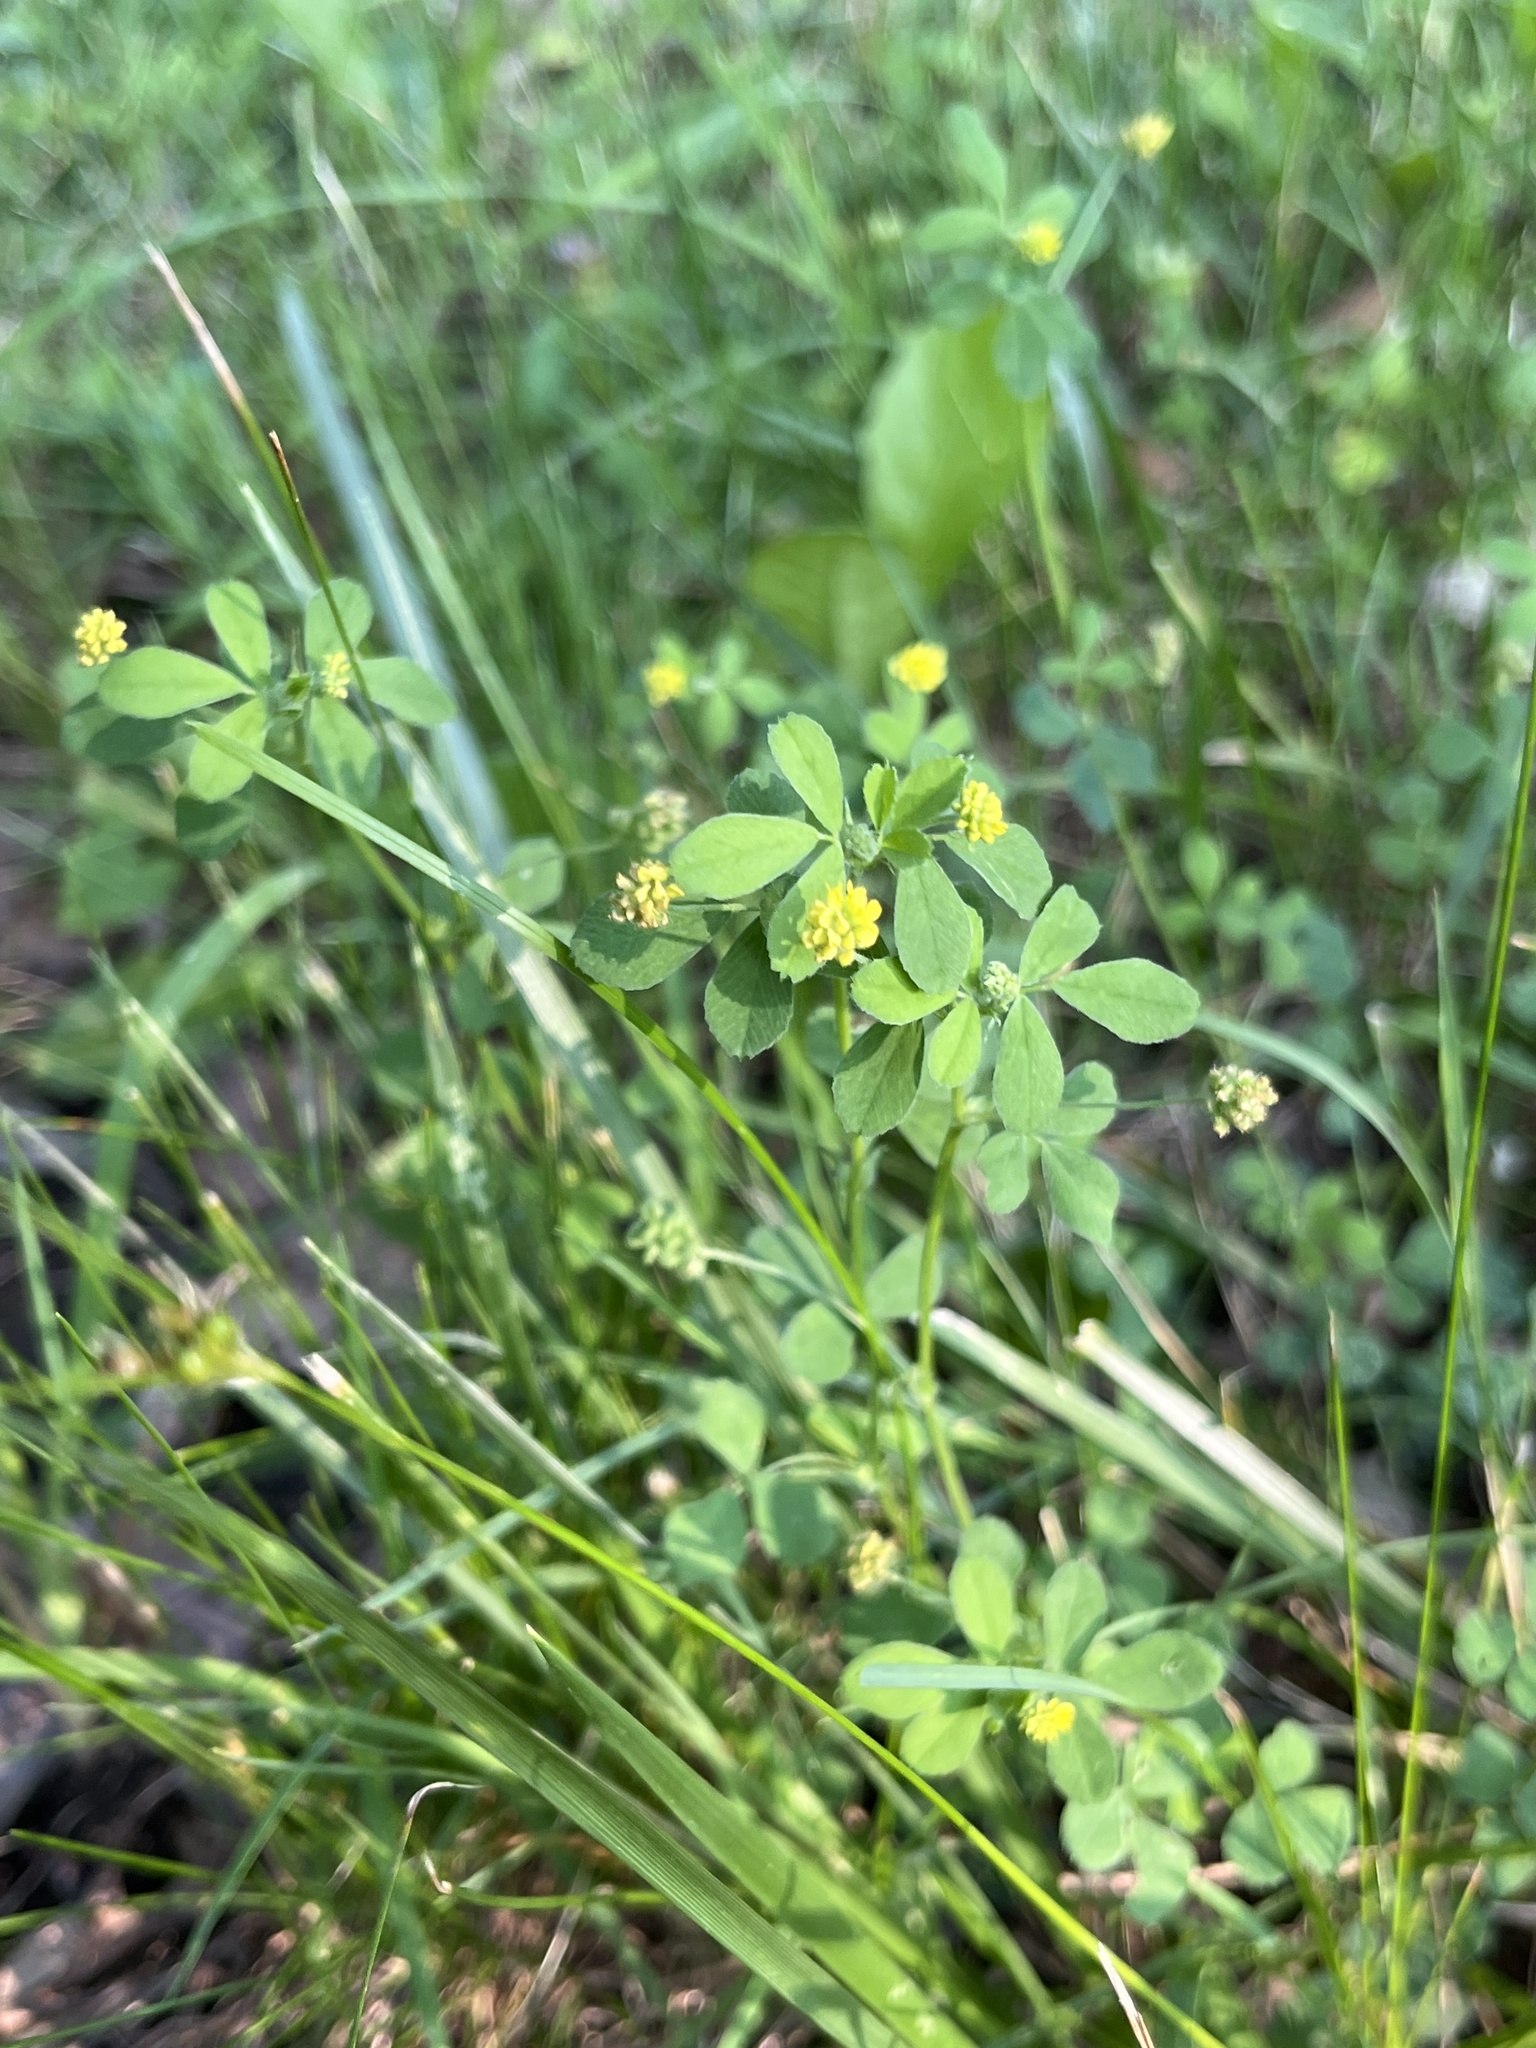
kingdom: Plantae
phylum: Tracheophyta
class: Magnoliopsida
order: Fabales
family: Fabaceae
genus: Medicago
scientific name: Medicago lupulina
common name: Black medick
